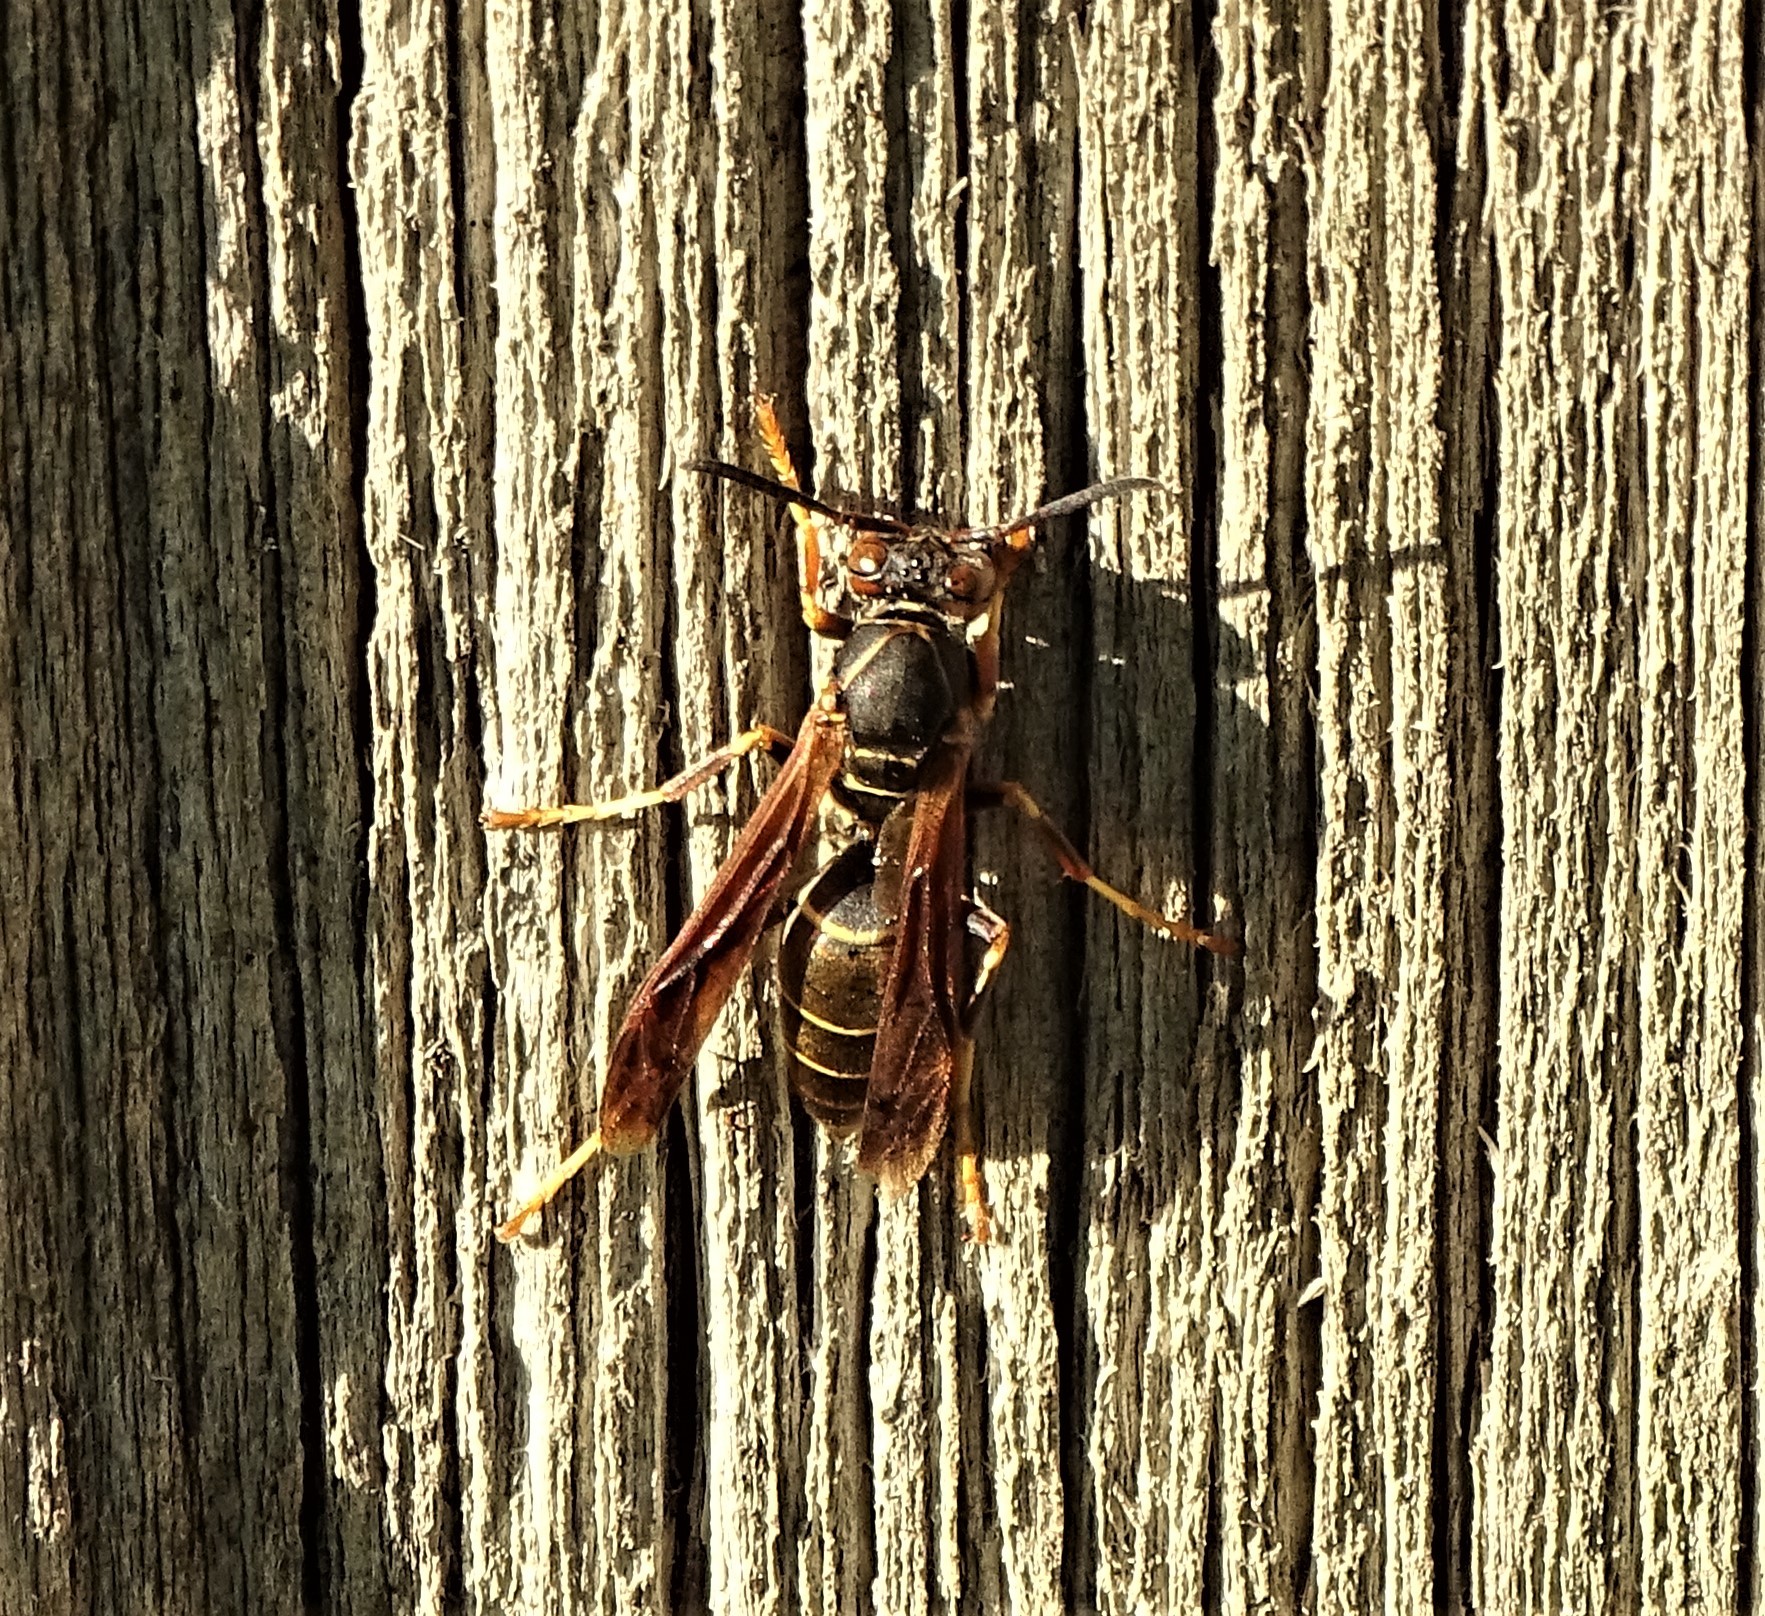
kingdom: Animalia
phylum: Arthropoda
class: Insecta
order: Hymenoptera
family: Eumenidae
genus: Polistes
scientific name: Polistes fuscatus
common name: Dark paper wasp
